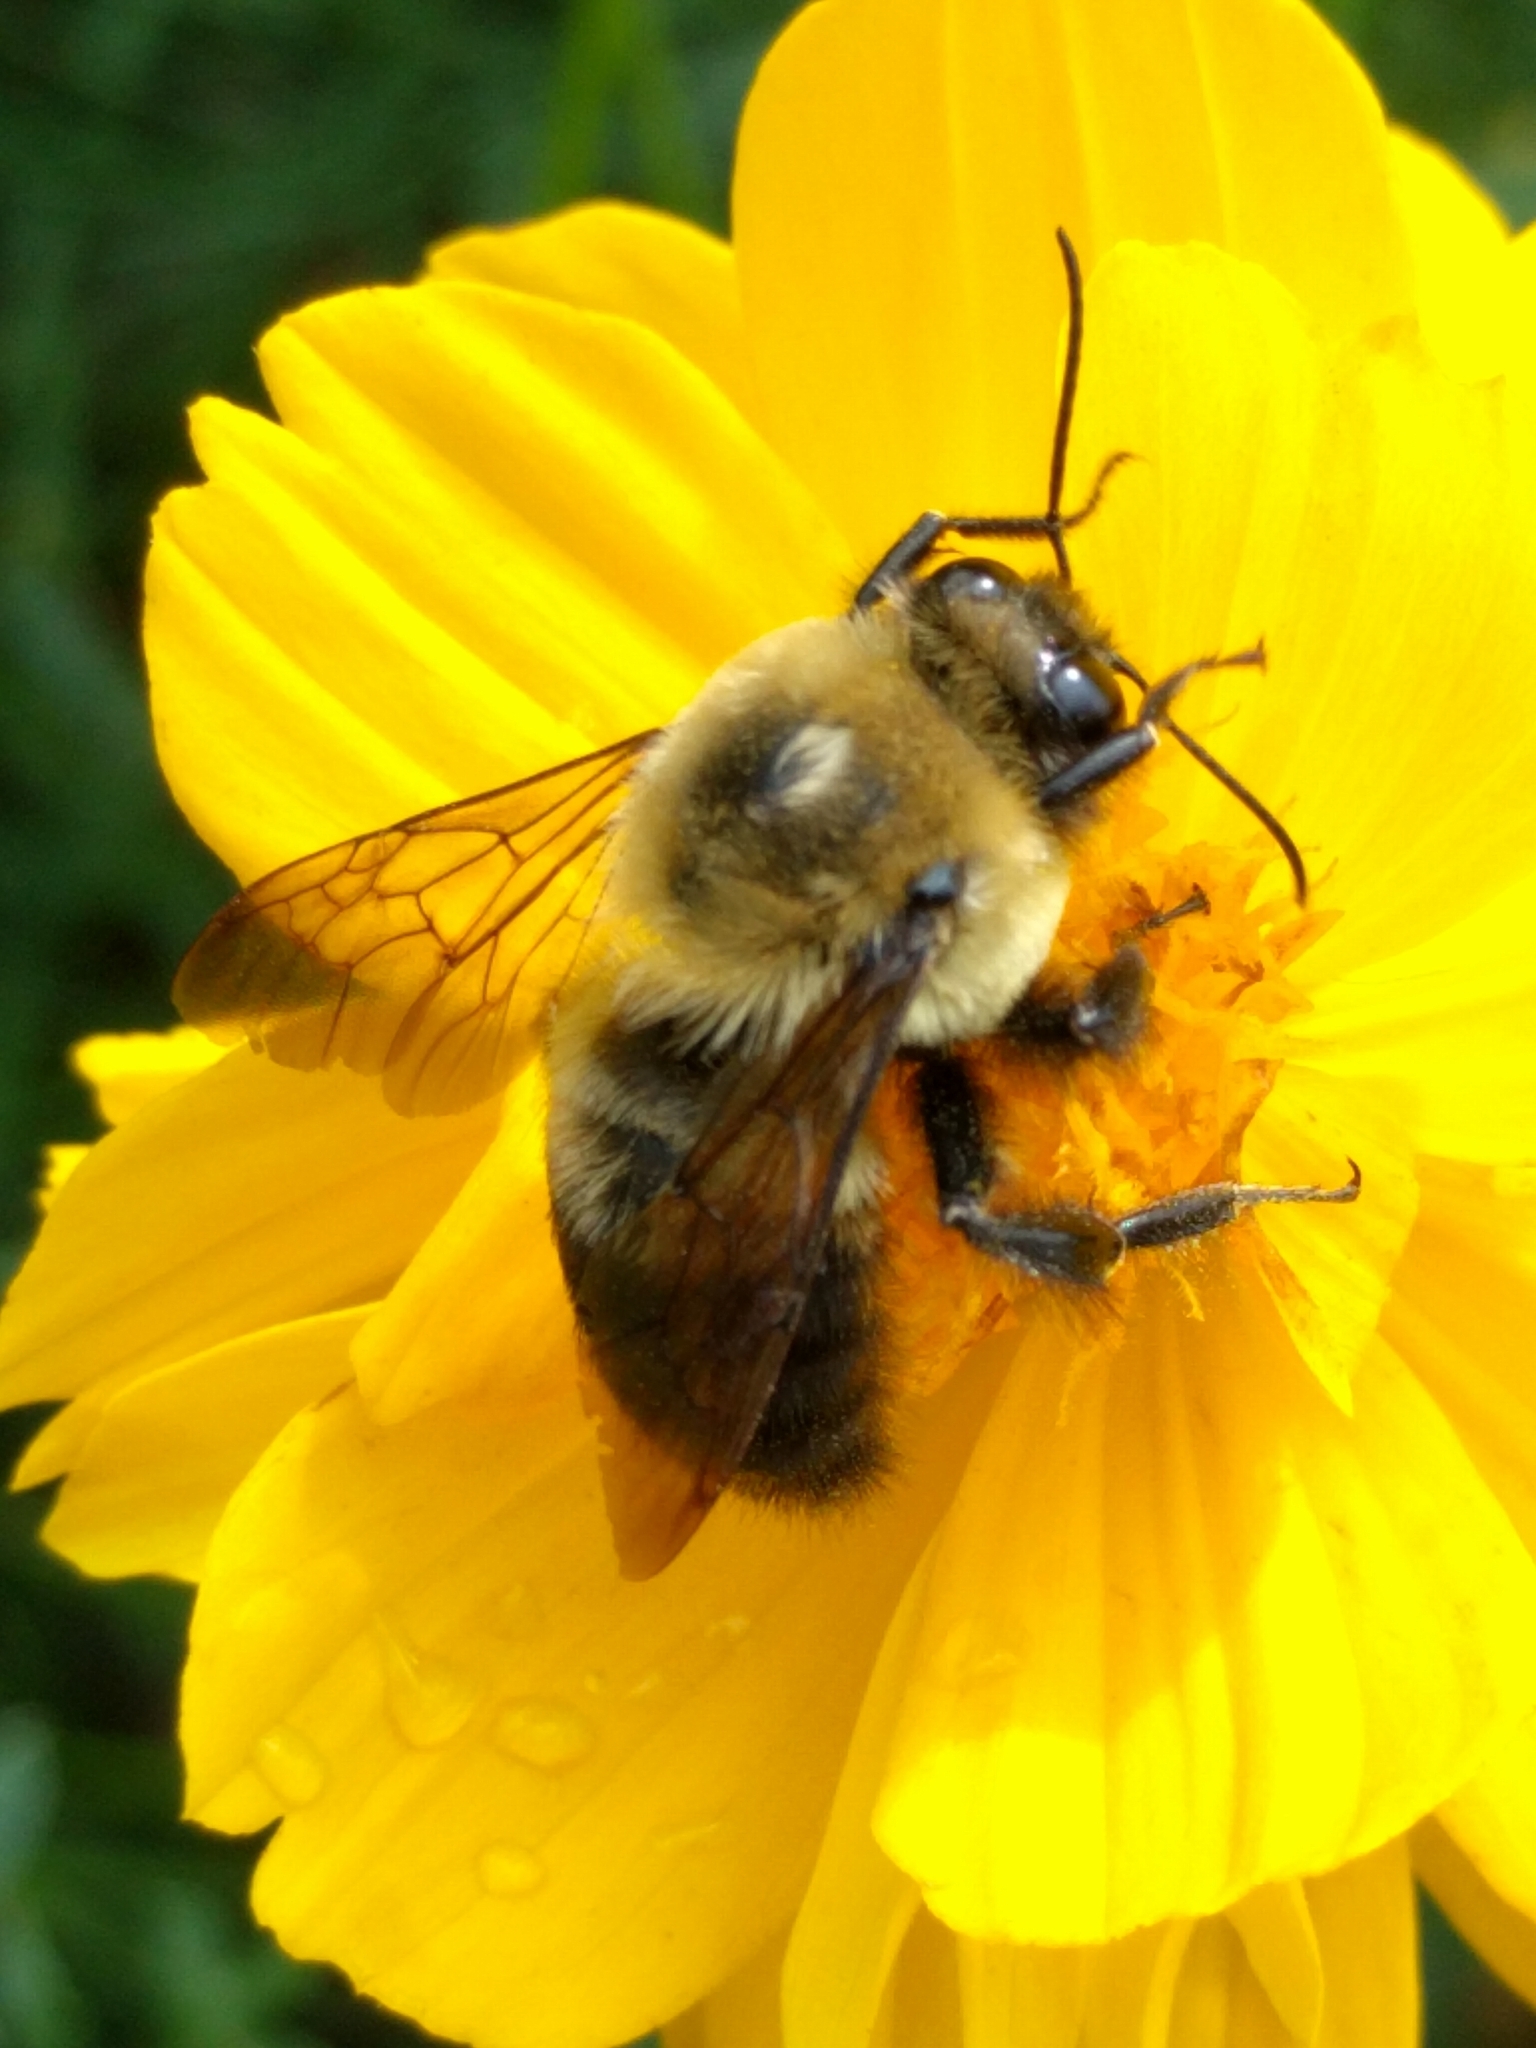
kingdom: Animalia
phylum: Arthropoda
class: Insecta
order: Hymenoptera
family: Apidae
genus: Bombus
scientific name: Bombus griseocollis
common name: Brown-belted bumble bee
